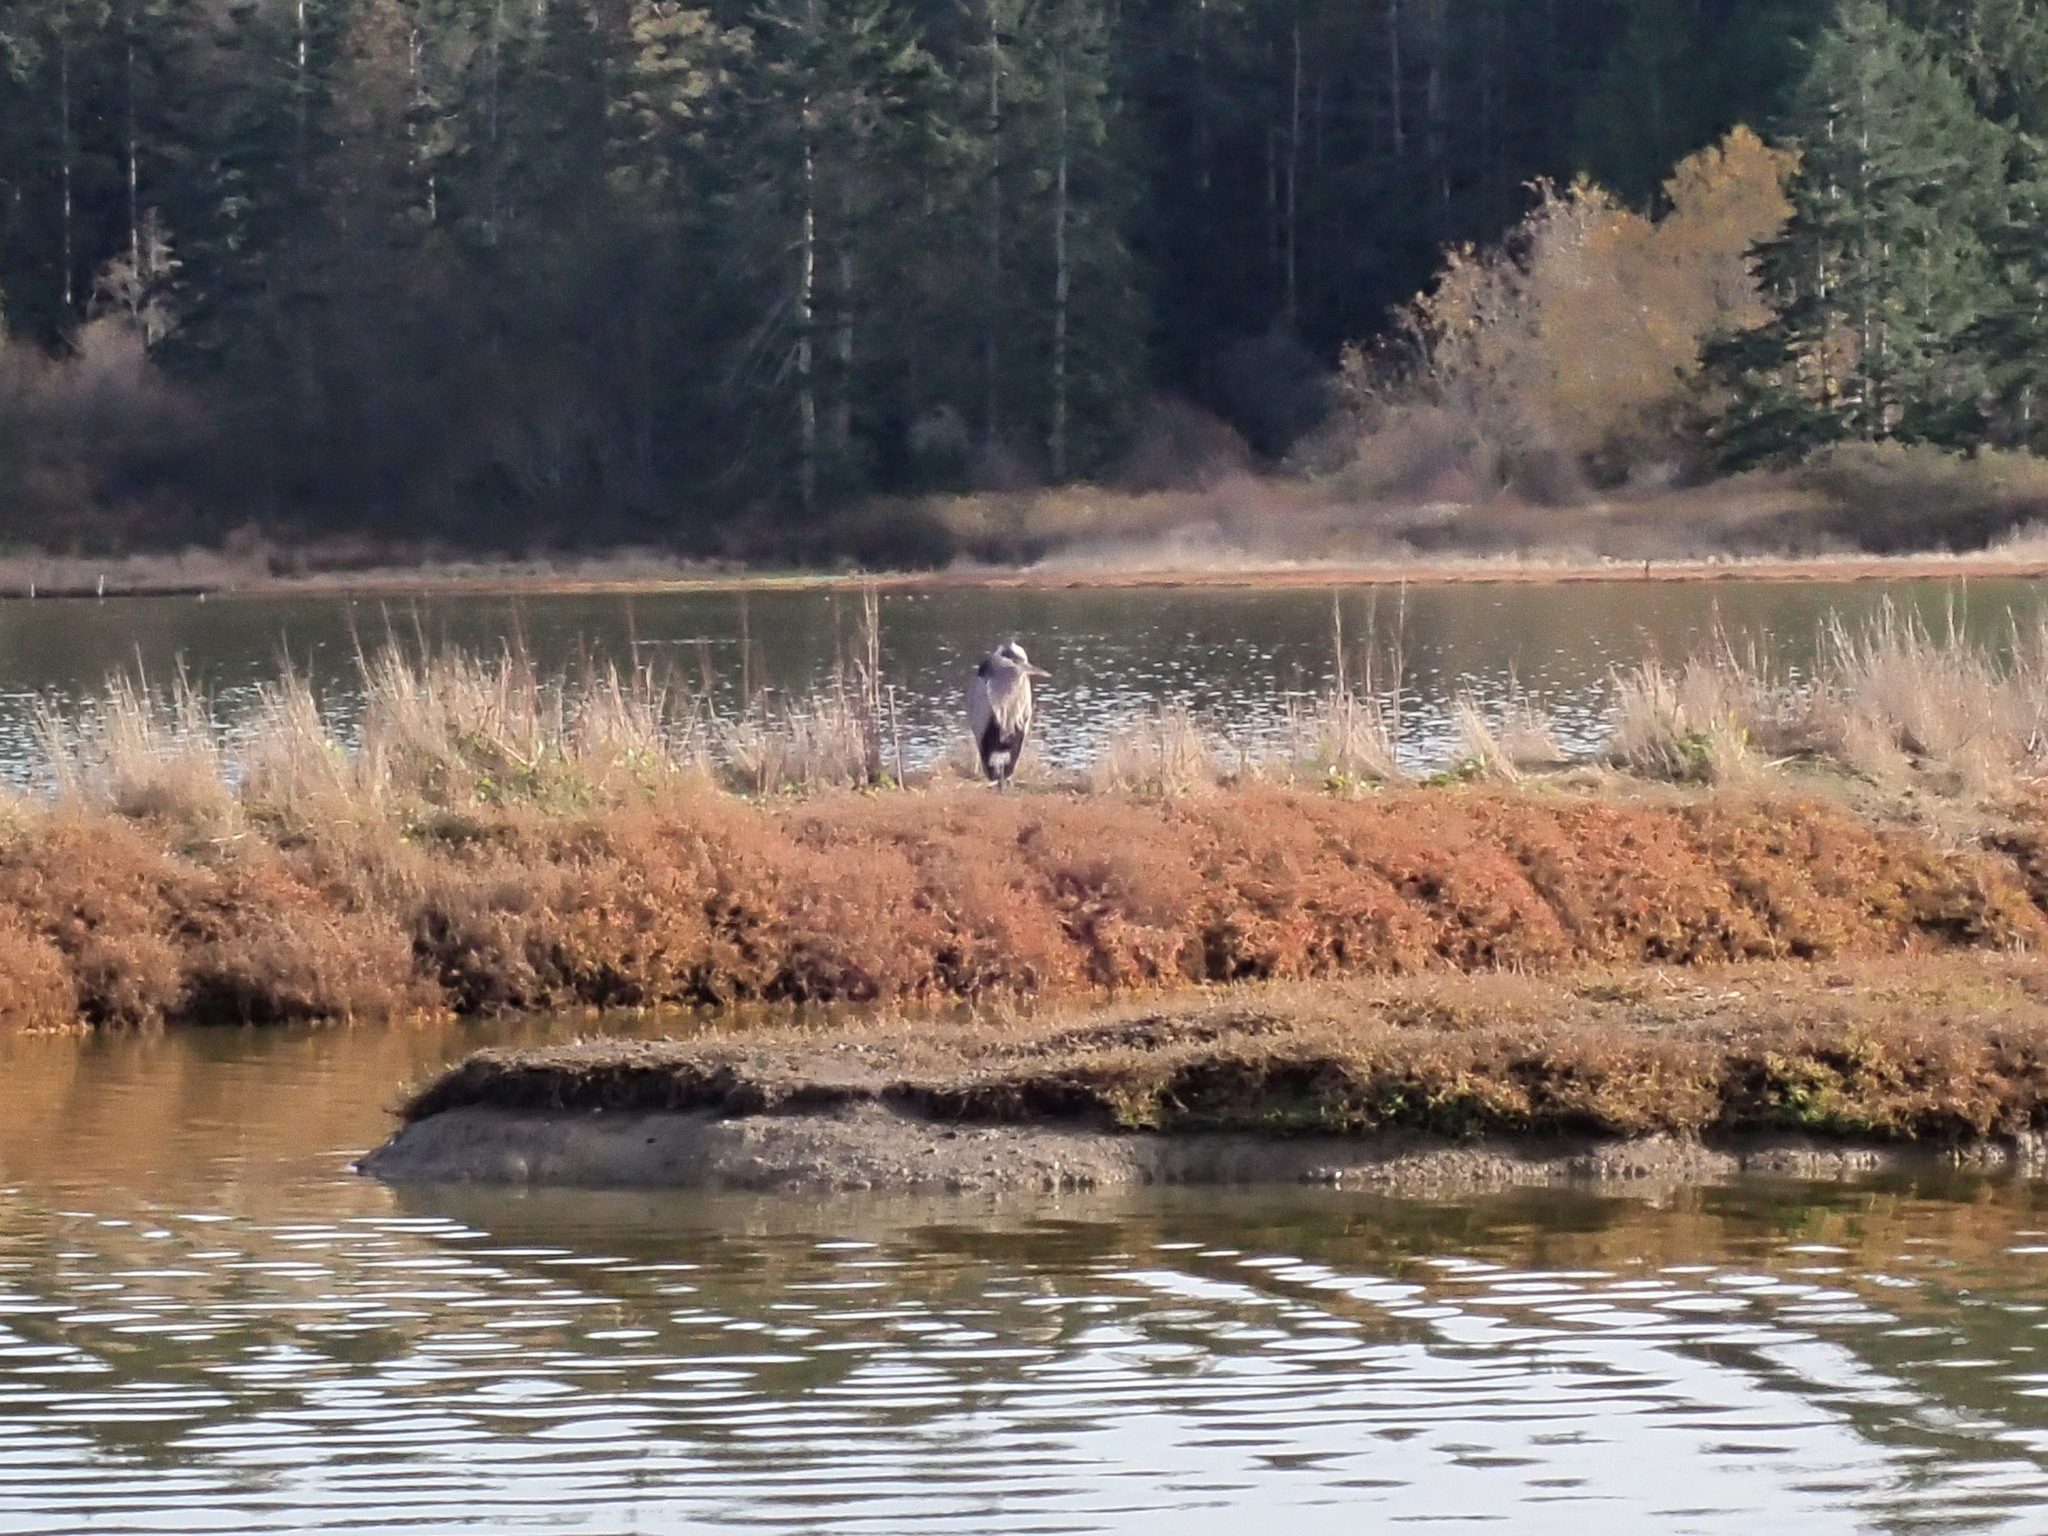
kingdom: Animalia
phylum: Chordata
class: Aves
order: Pelecaniformes
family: Ardeidae
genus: Ardea
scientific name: Ardea herodias
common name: Great blue heron
